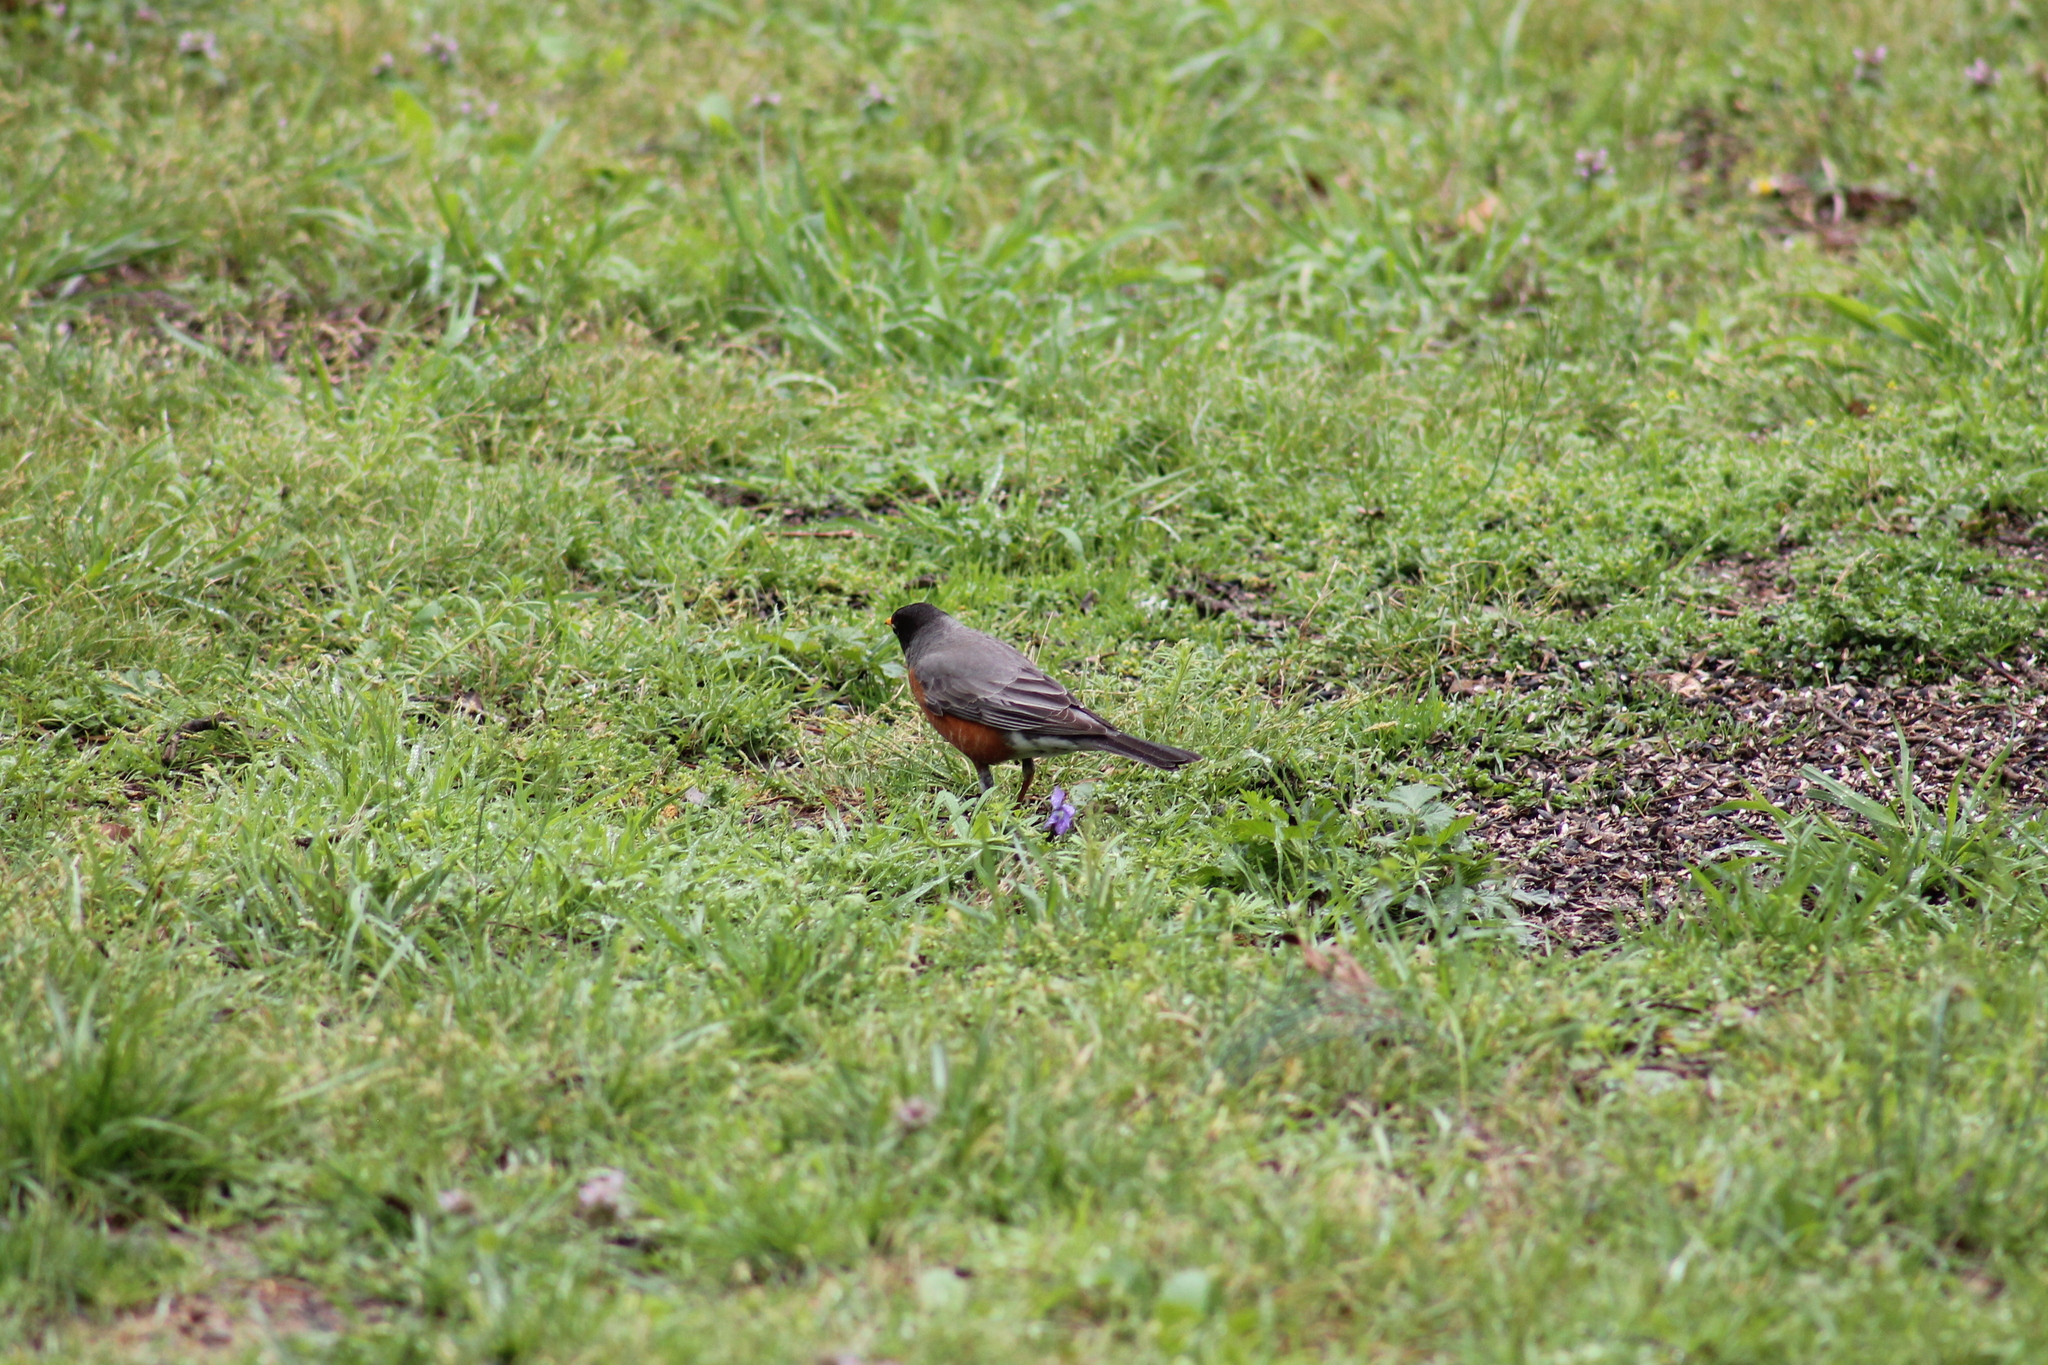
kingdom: Animalia
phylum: Chordata
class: Aves
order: Passeriformes
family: Turdidae
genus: Turdus
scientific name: Turdus migratorius
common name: American robin
